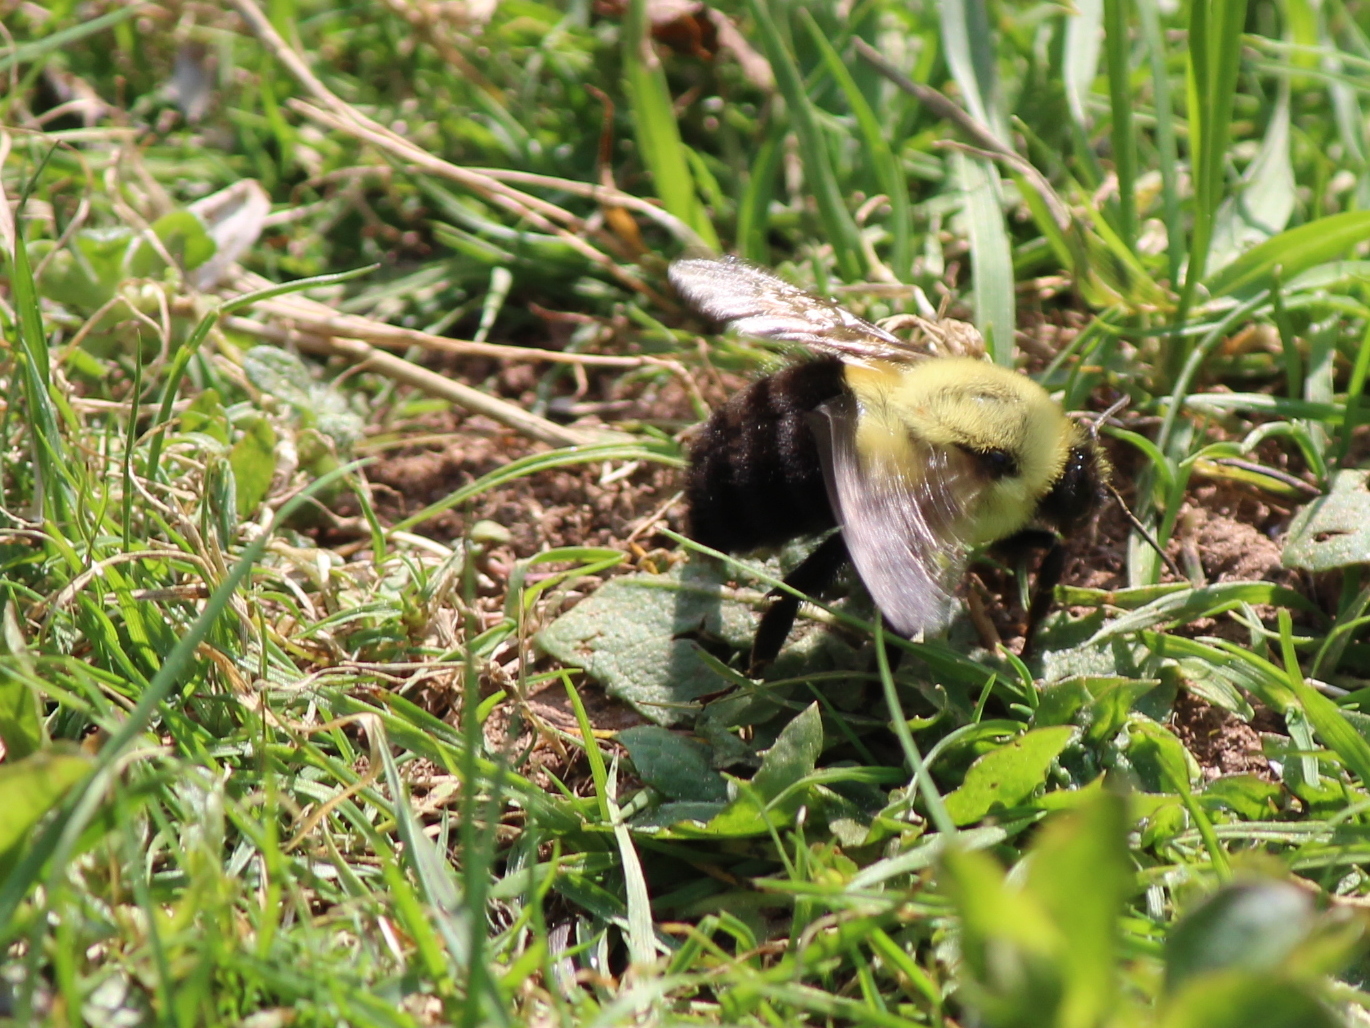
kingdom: Animalia
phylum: Arthropoda
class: Insecta
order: Hymenoptera
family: Apidae
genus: Bombus
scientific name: Bombus impatiens
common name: Common eastern bumble bee
